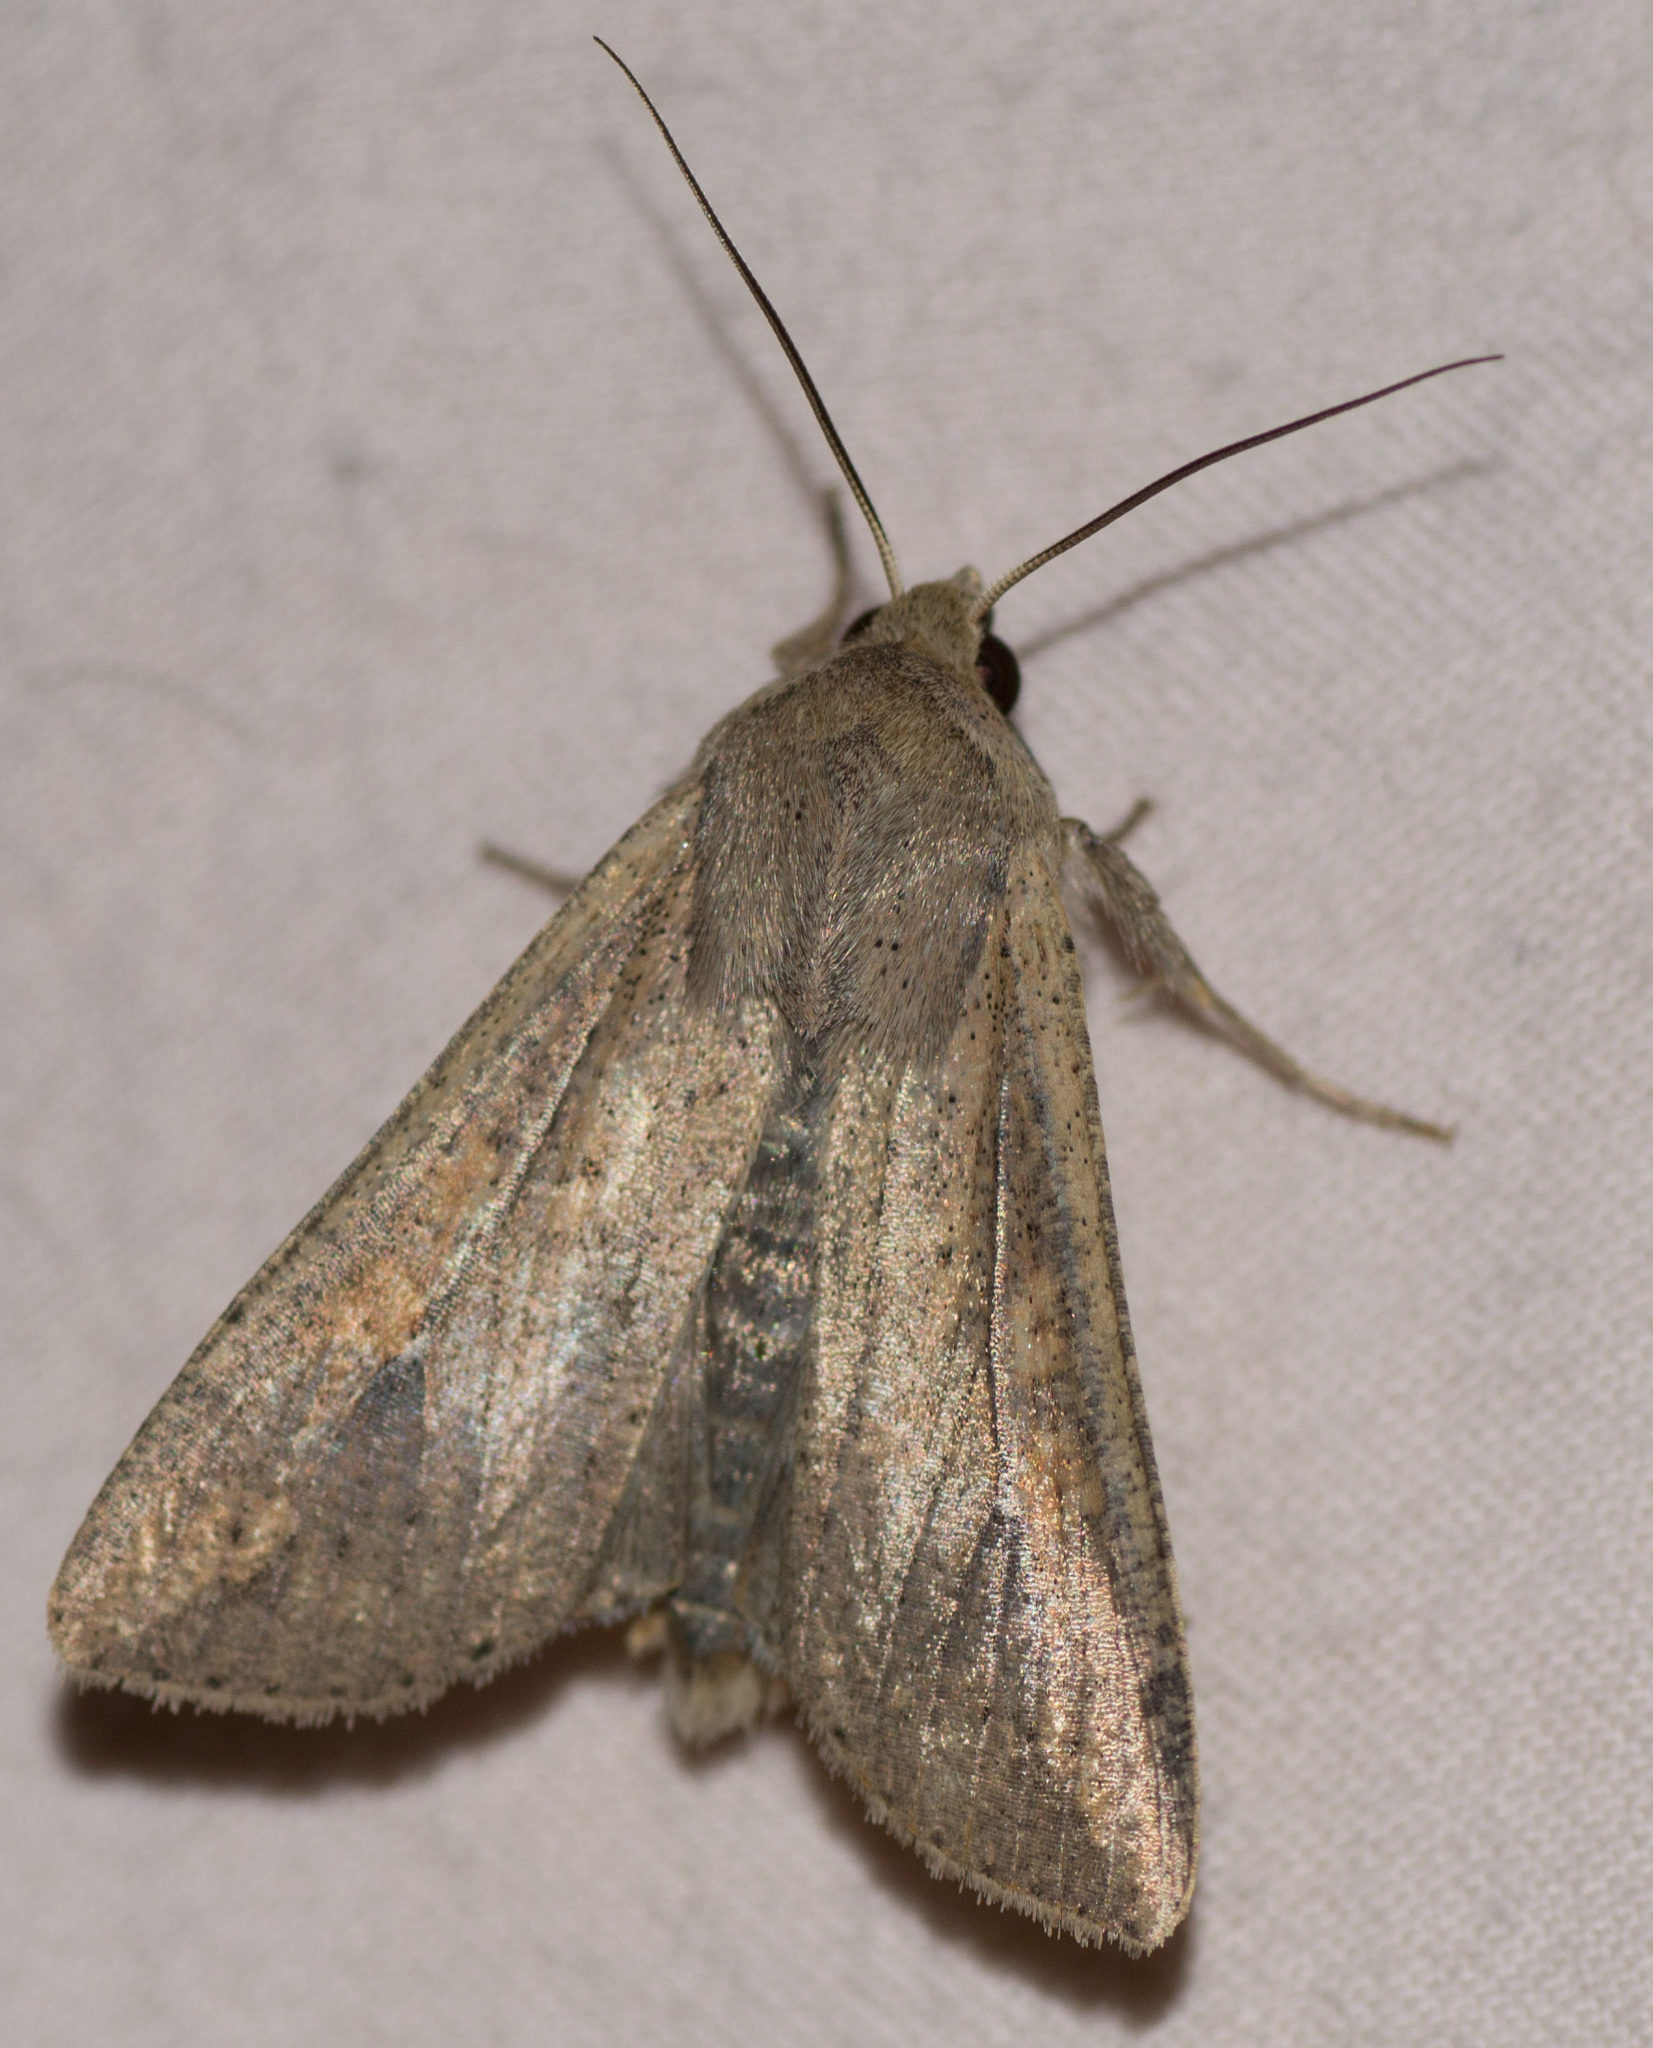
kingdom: Animalia
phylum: Arthropoda
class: Insecta
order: Lepidoptera
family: Noctuidae
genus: Mythimna
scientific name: Mythimna unipuncta
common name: White-speck
